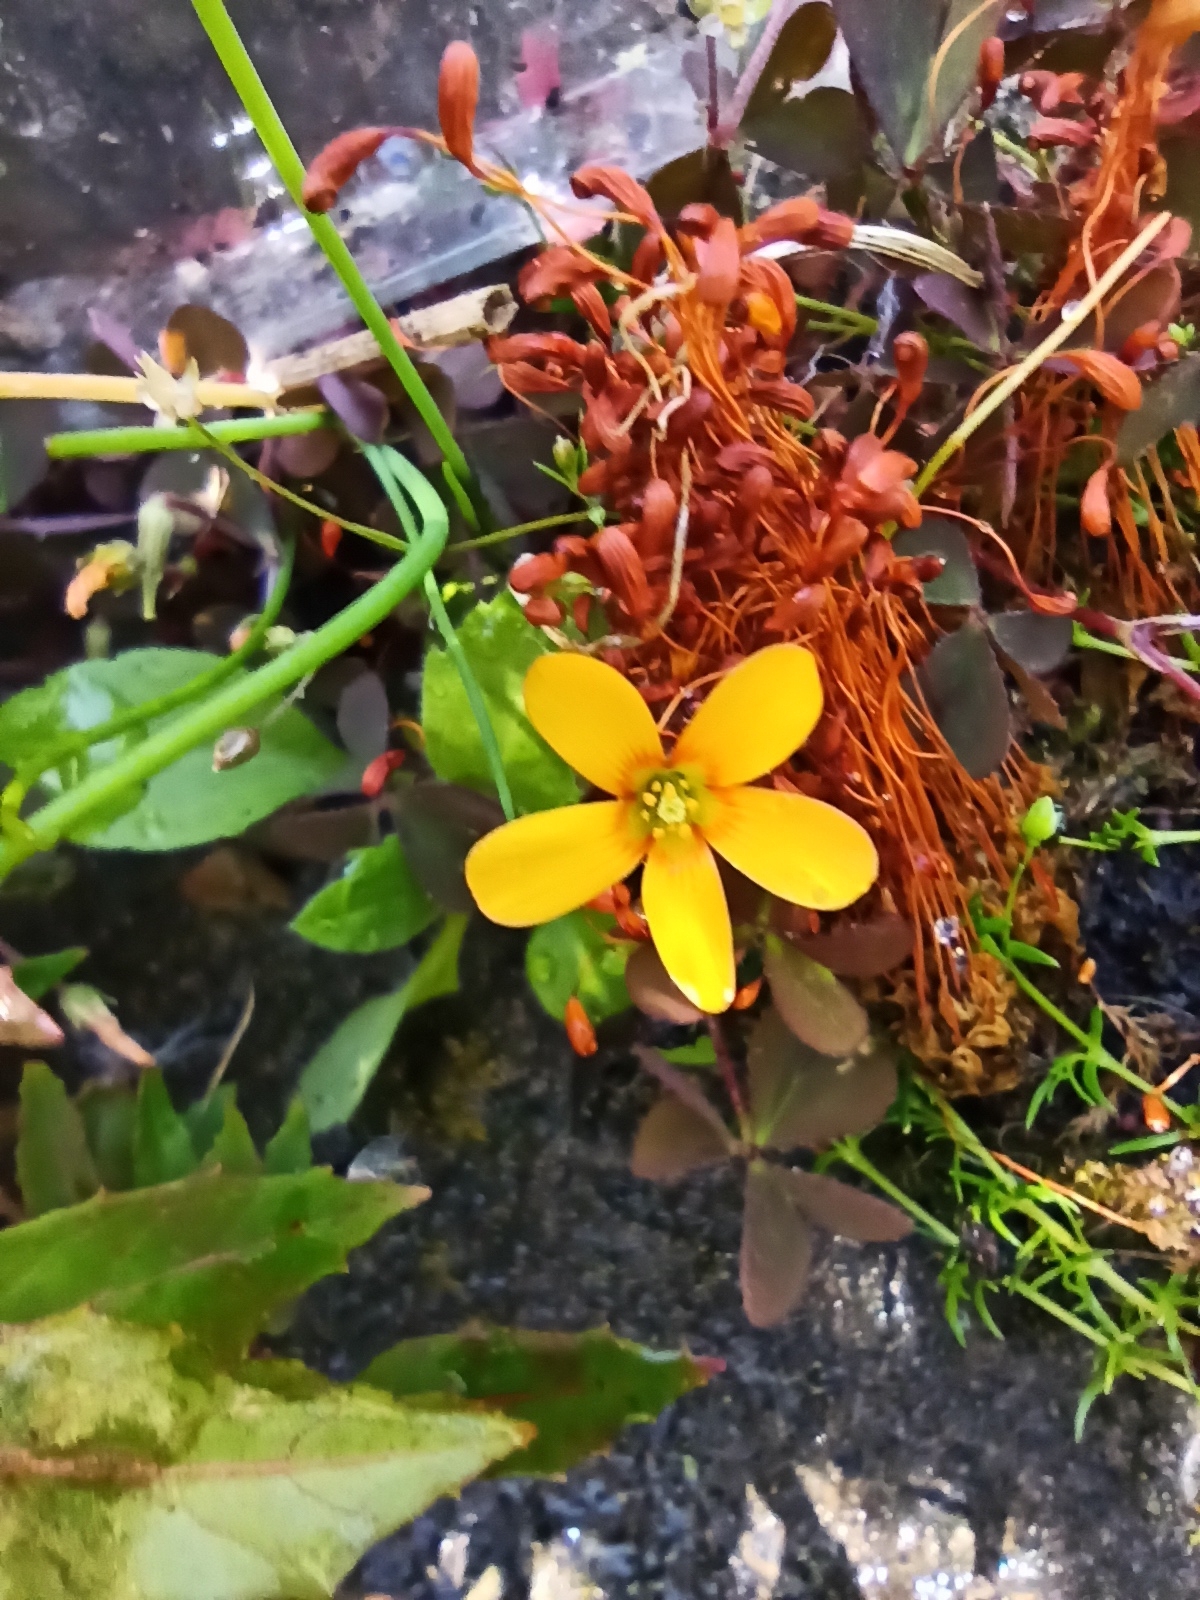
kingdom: Plantae
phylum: Tracheophyta
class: Magnoliopsida
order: Oxalidales
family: Oxalidaceae
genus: Oxalis
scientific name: Oxalis corniculata
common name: Procumbent yellow-sorrel
